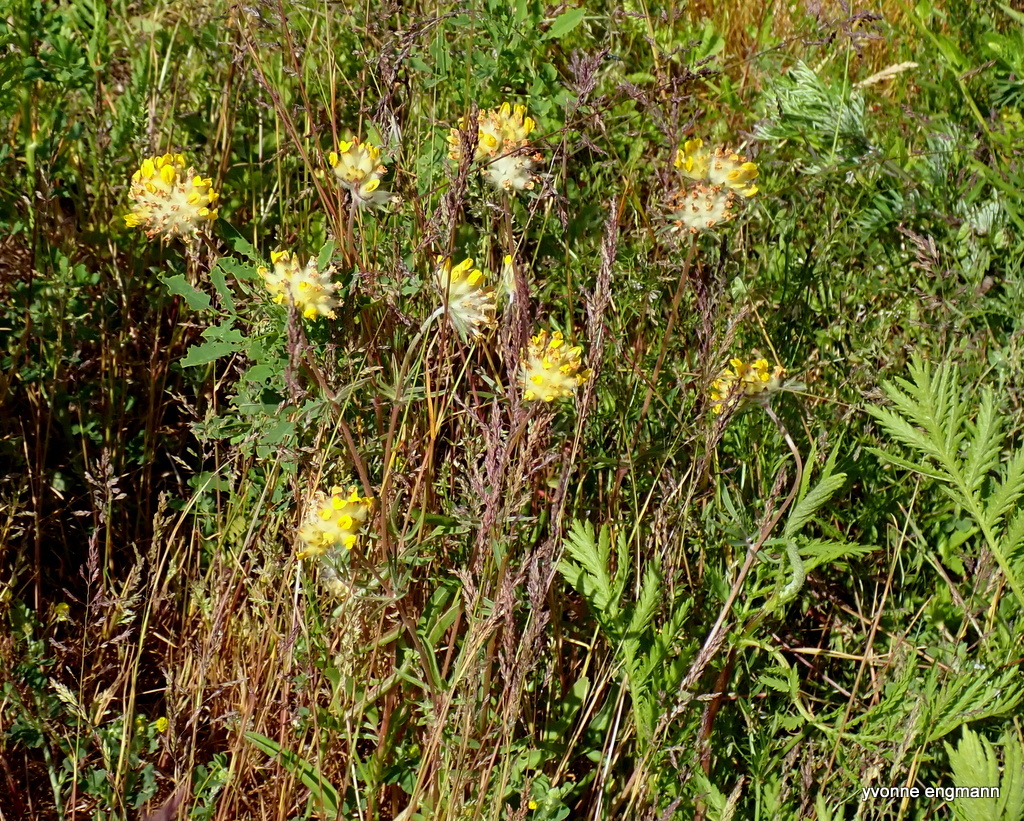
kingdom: Plantae
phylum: Tracheophyta
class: Magnoliopsida
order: Fabales
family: Fabaceae
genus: Anthyllis
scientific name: Anthyllis vulneraria
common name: Kidney vetch
